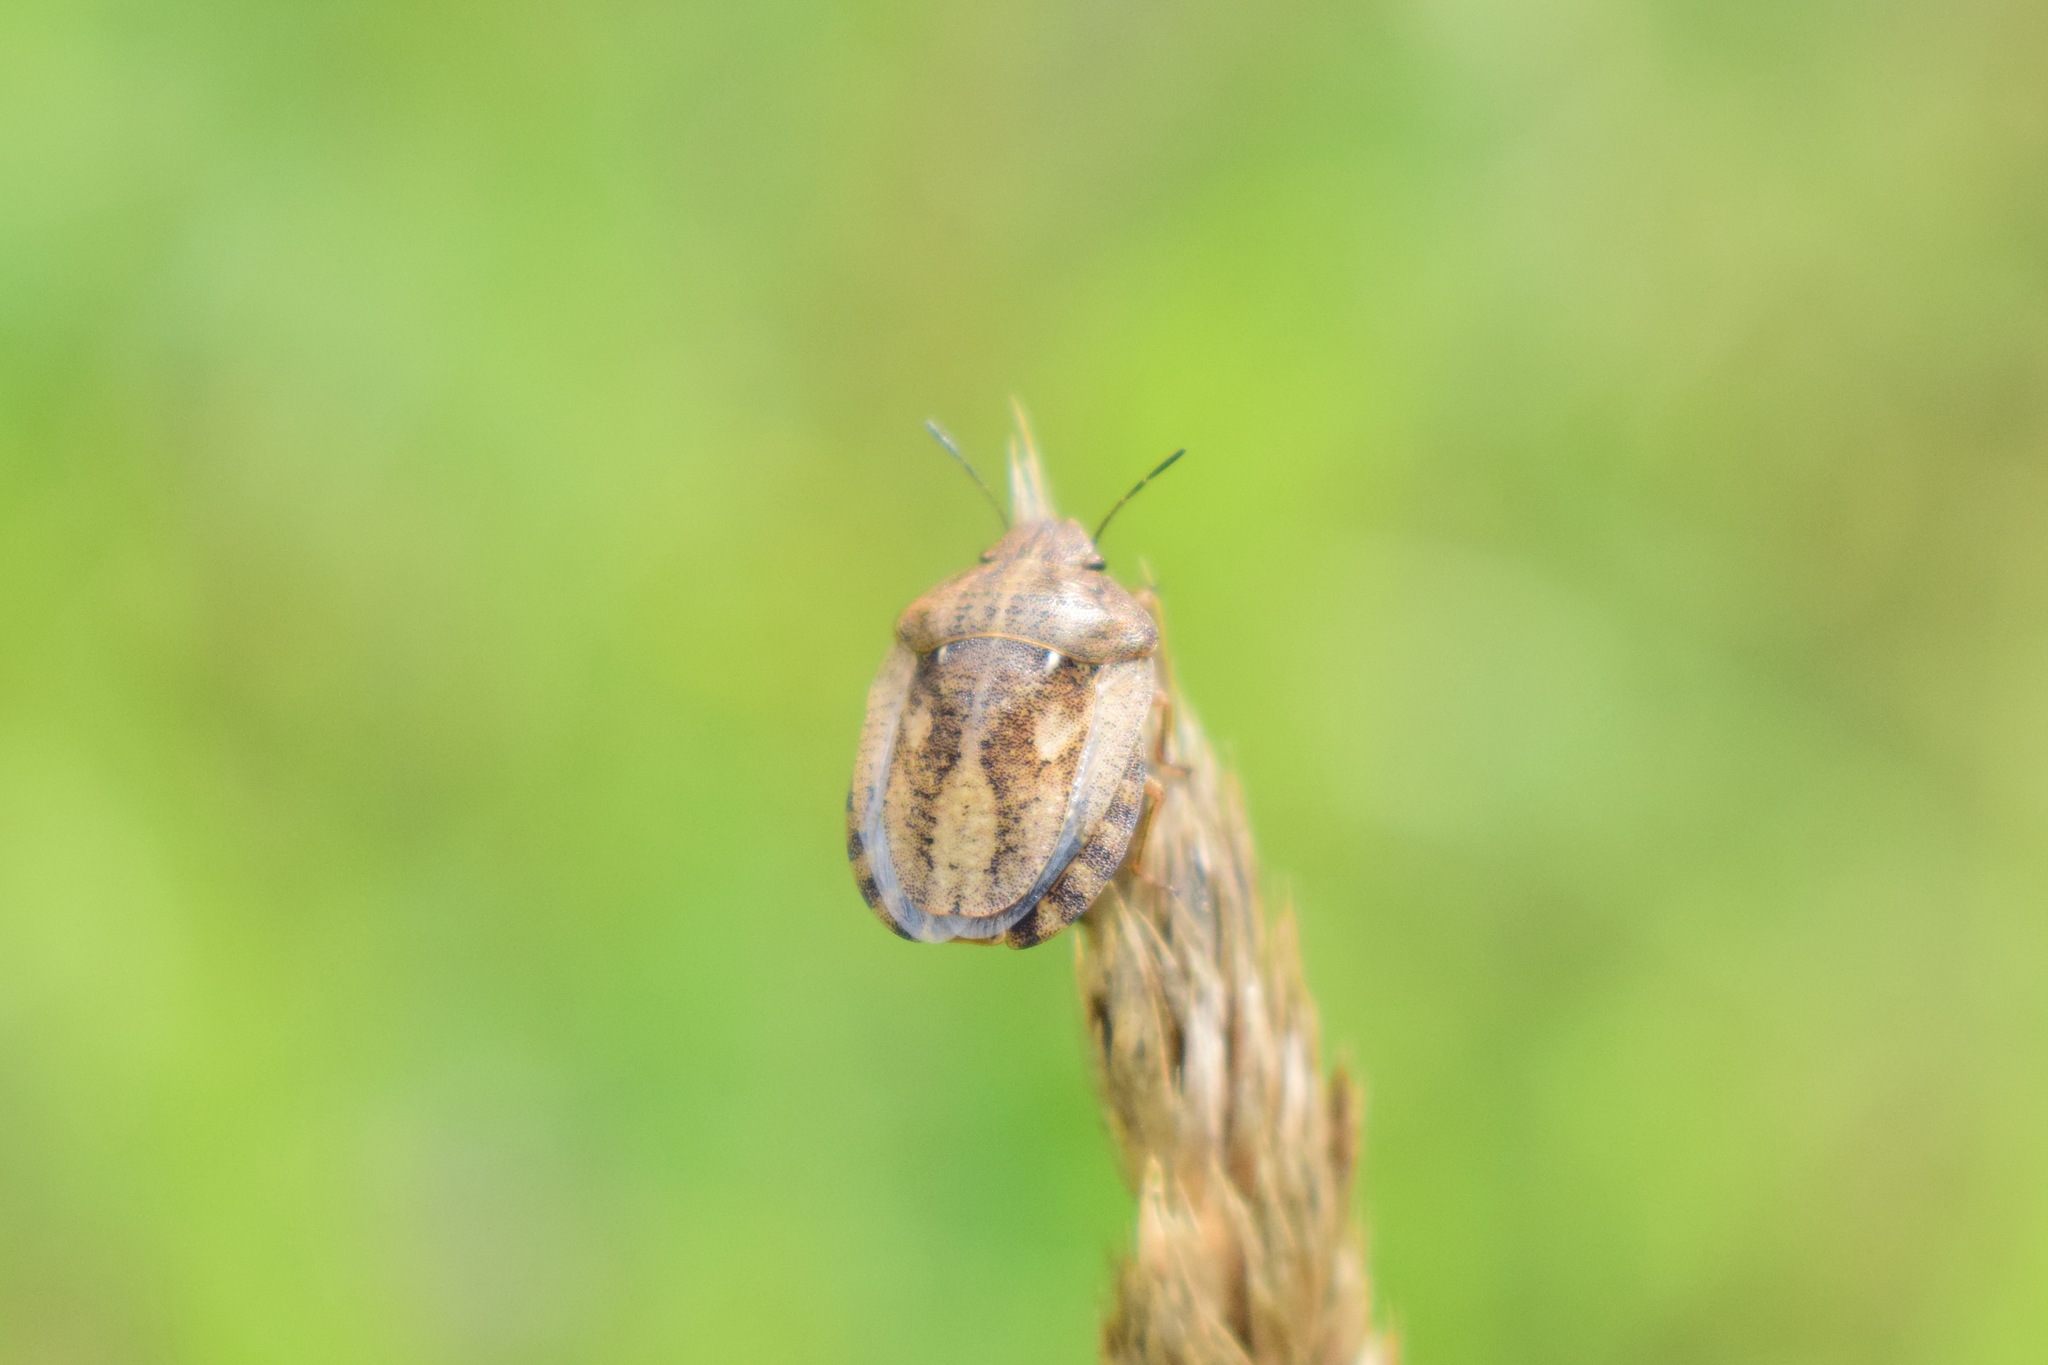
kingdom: Animalia
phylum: Arthropoda
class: Insecta
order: Hemiptera
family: Scutelleridae
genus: Eurygaster
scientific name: Eurygaster testudinaria
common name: Tortoise bug
